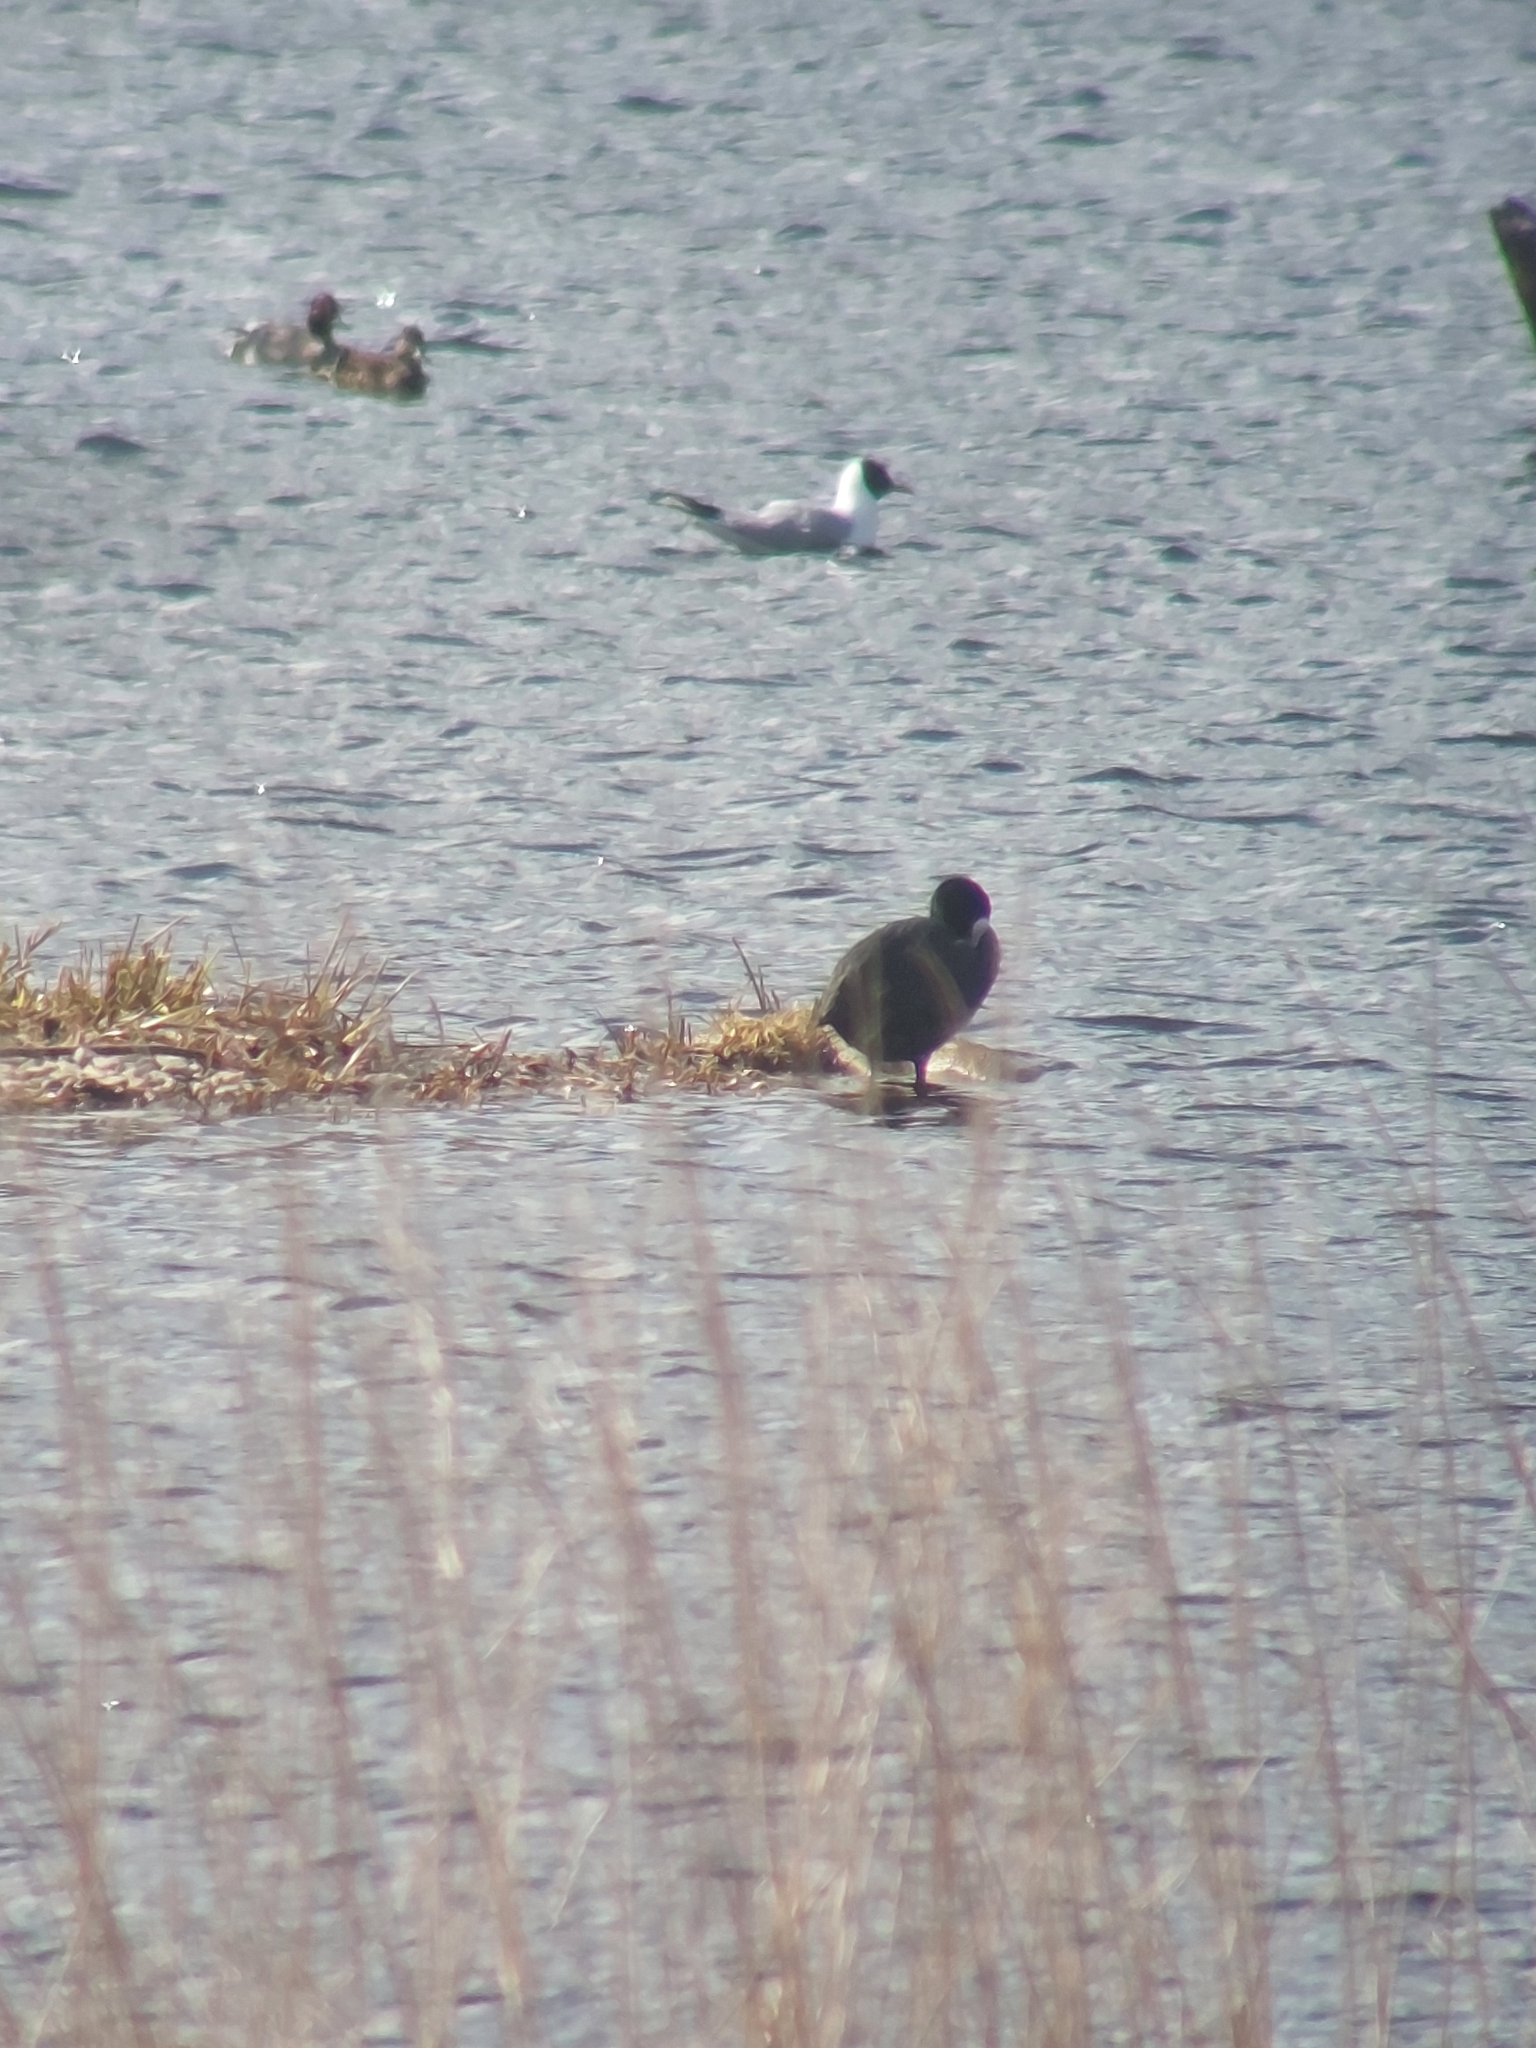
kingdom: Animalia
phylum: Chordata
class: Aves
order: Gruiformes
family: Rallidae
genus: Fulica
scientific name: Fulica atra
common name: Eurasian coot
